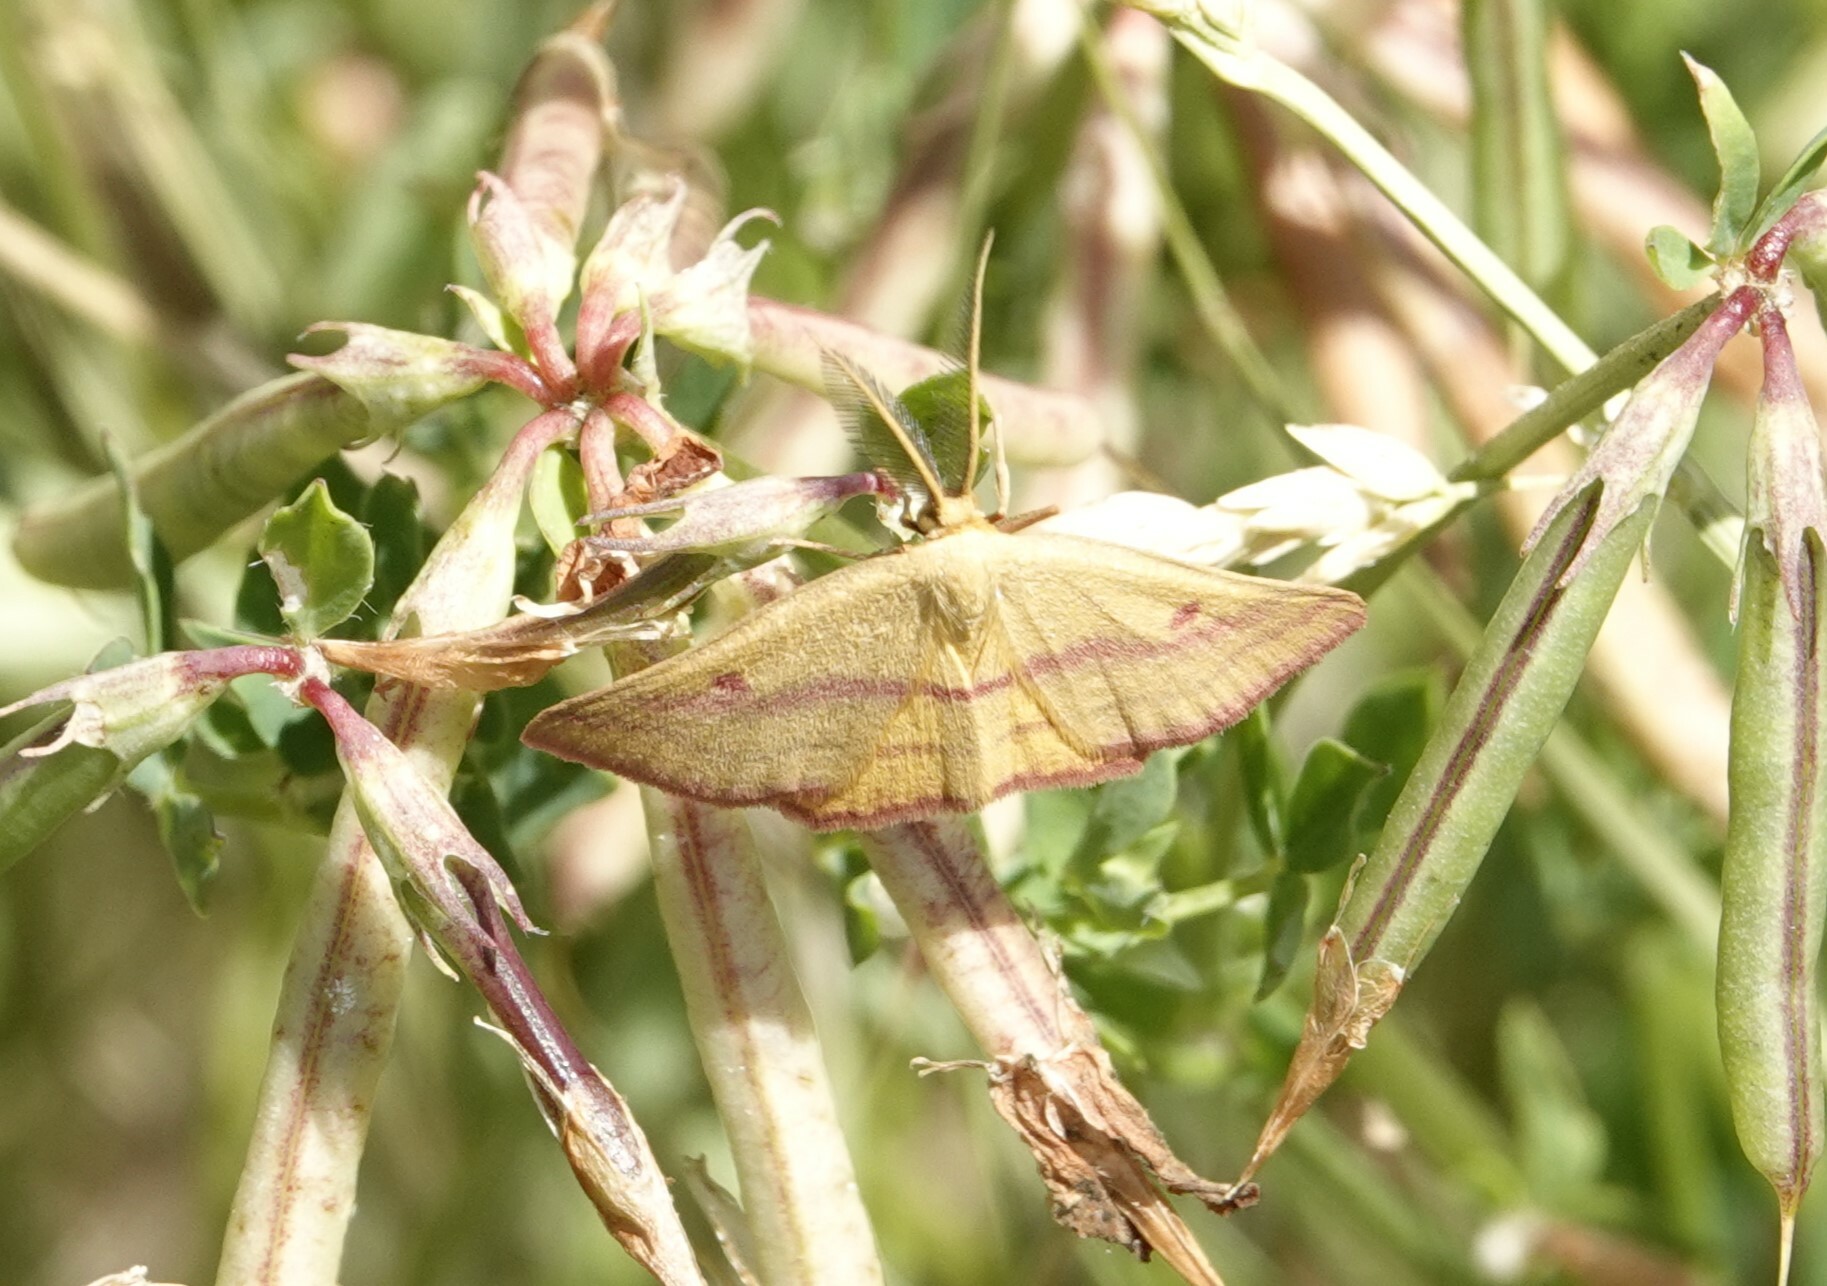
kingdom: Animalia
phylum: Arthropoda
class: Insecta
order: Lepidoptera
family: Geometridae
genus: Haematopis
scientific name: Haematopis grataria
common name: Chickweed geometer
